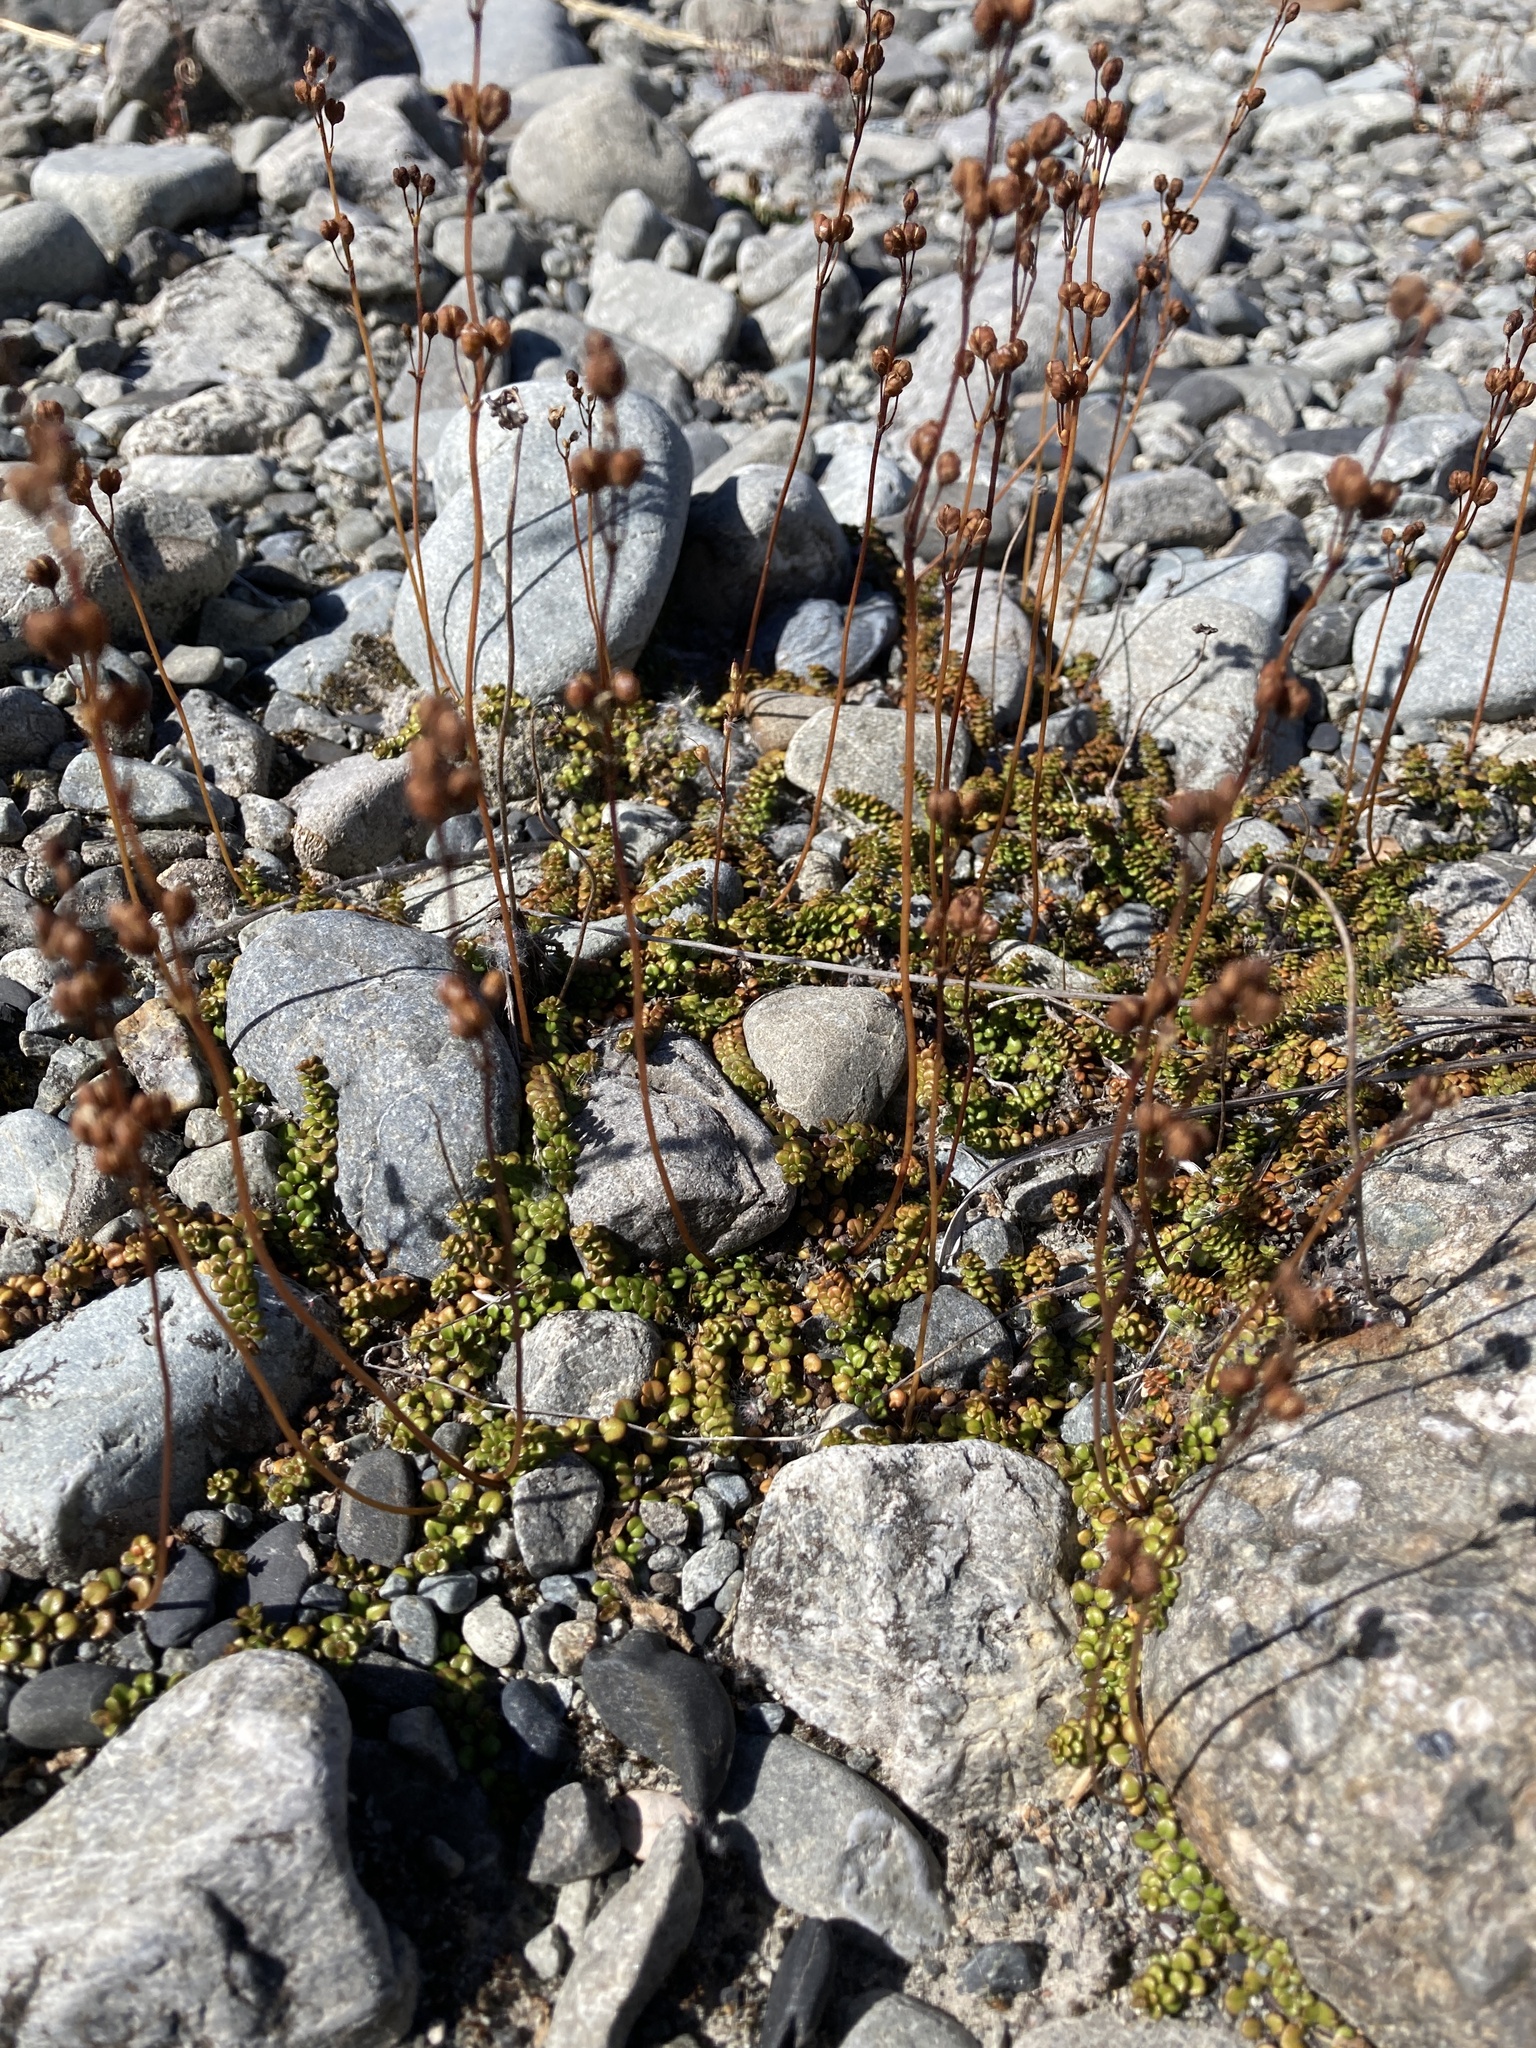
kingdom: Plantae
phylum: Tracheophyta
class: Magnoliopsida
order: Lamiales
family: Plantaginaceae
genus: Veronica
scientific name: Veronica decora
